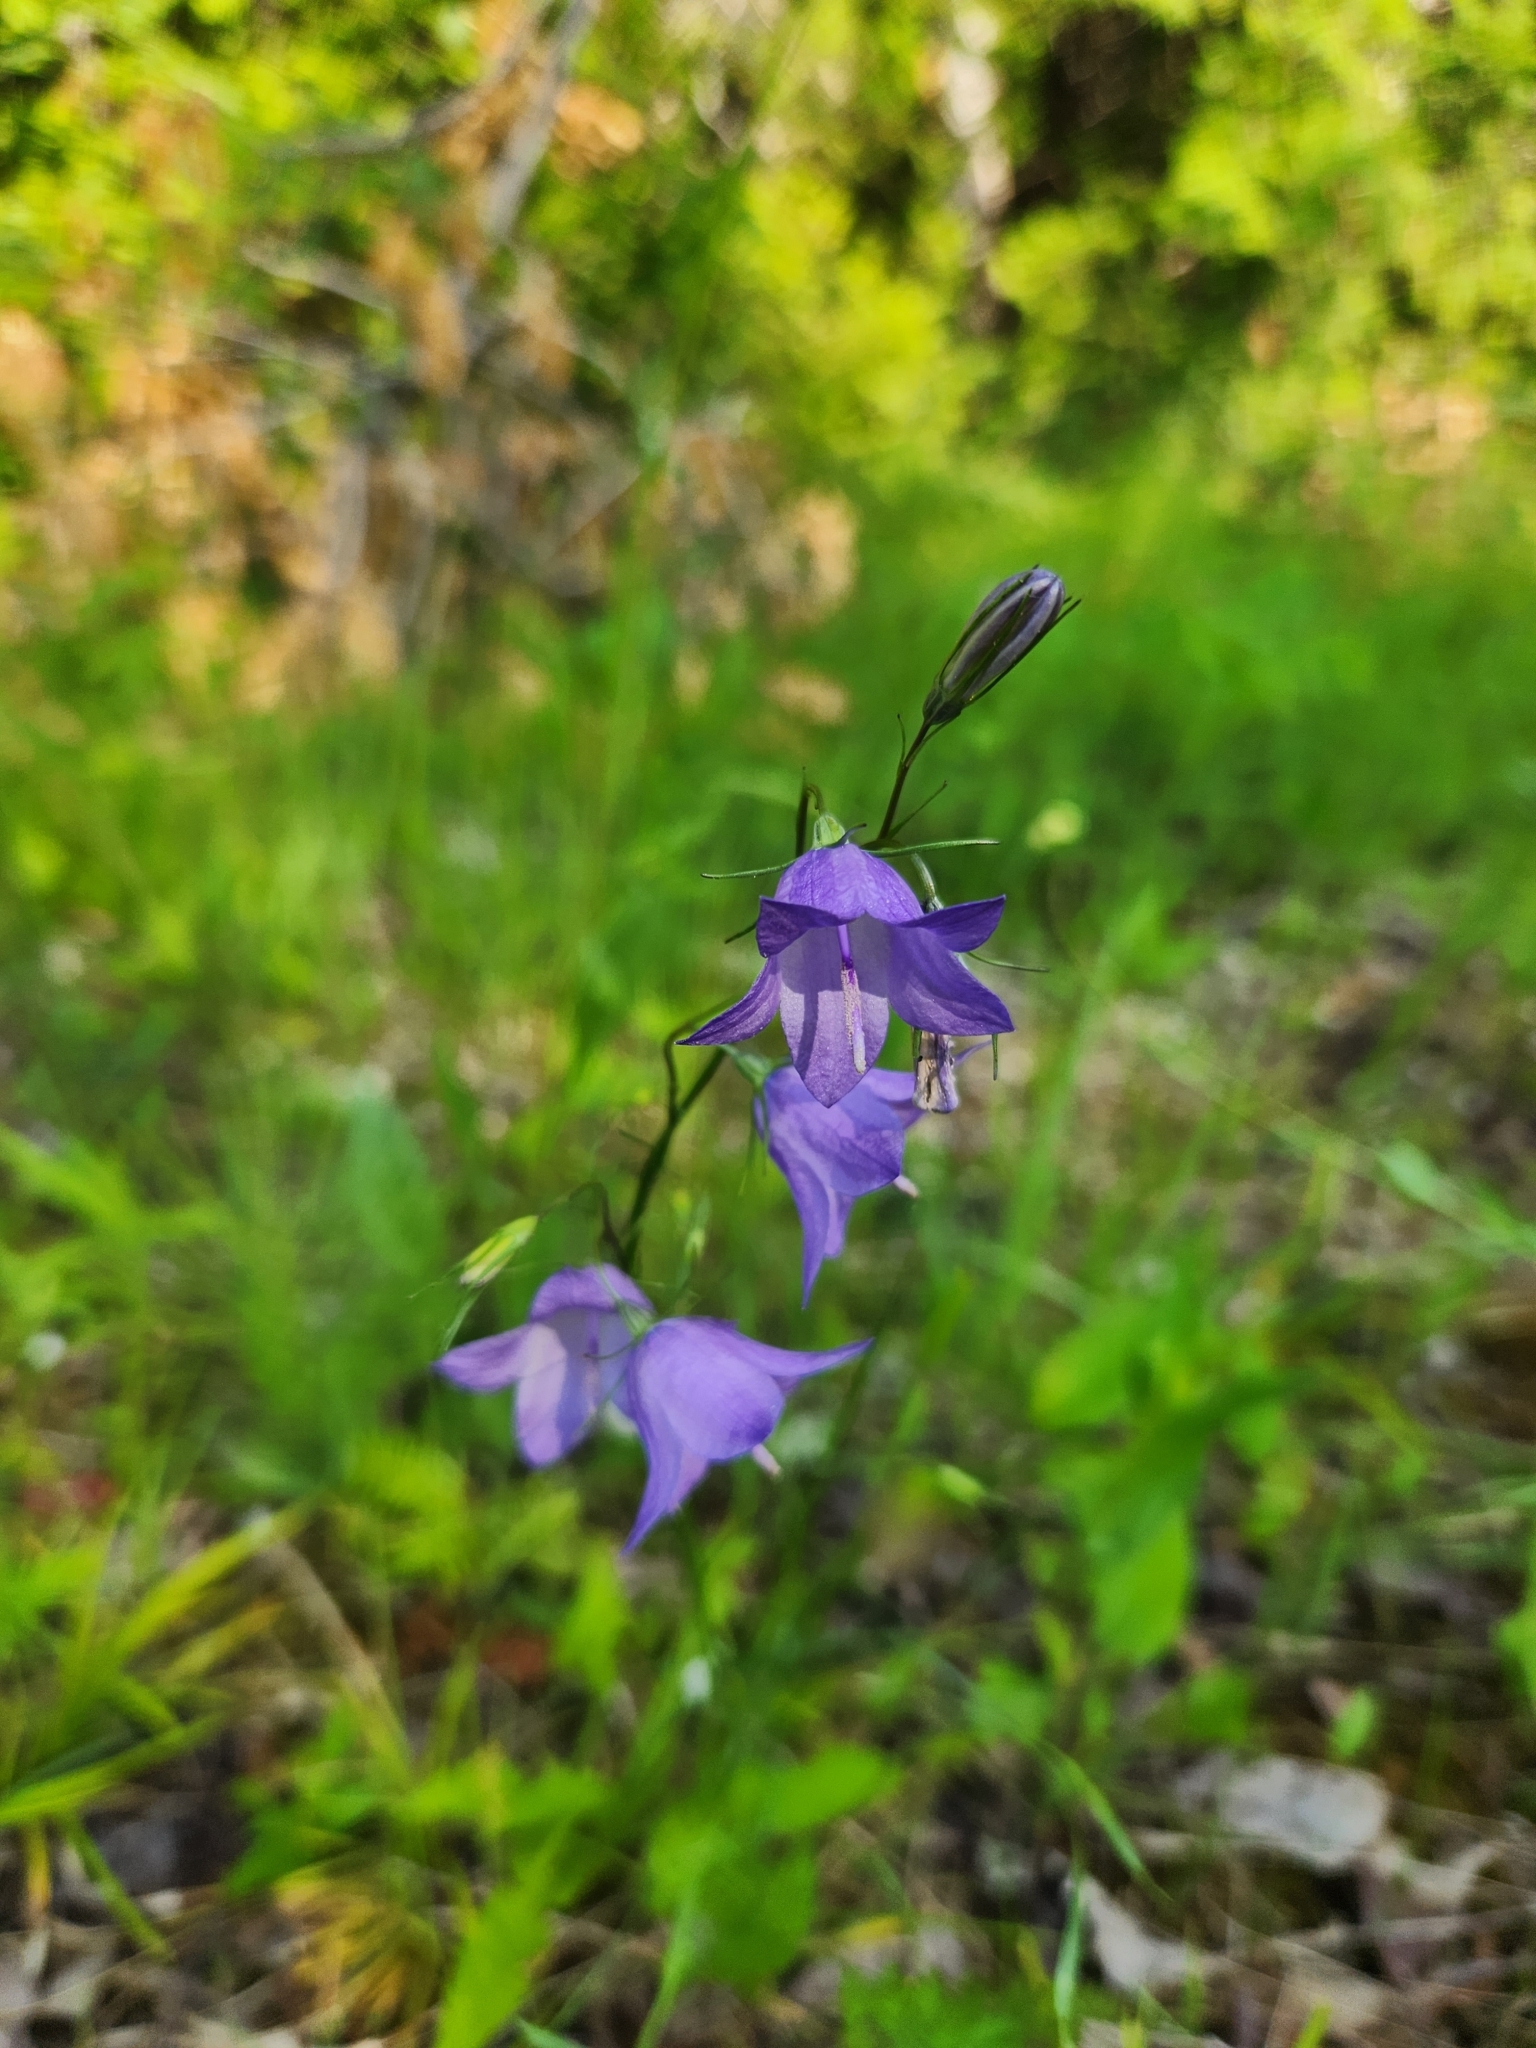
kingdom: Plantae
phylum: Tracheophyta
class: Magnoliopsida
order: Asterales
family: Campanulaceae
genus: Campanula
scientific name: Campanula intercedens
